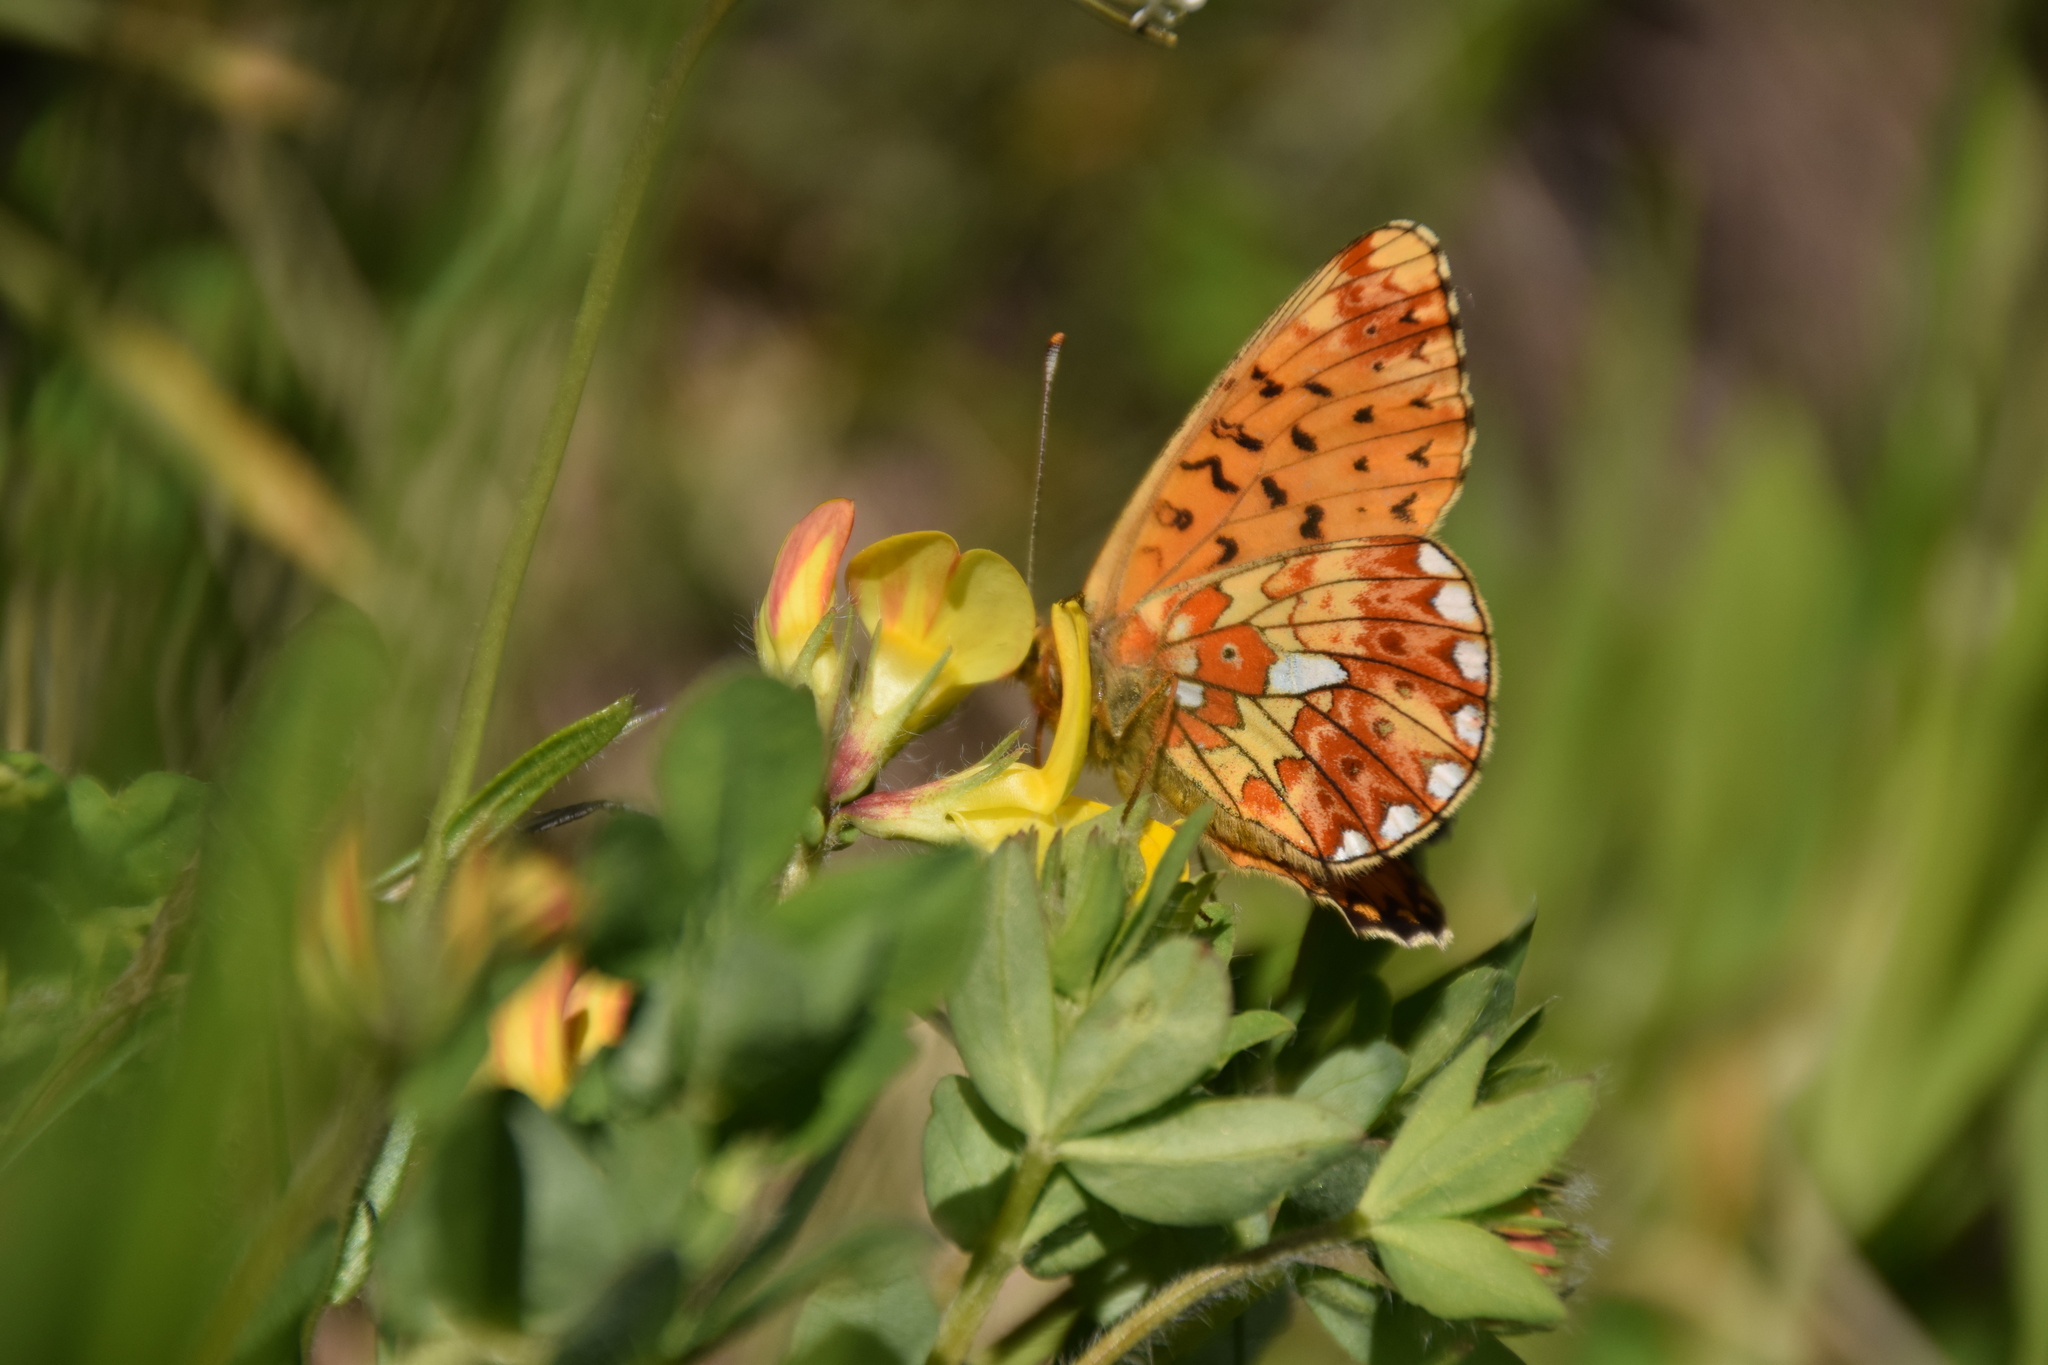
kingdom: Animalia
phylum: Arthropoda
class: Insecta
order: Lepidoptera
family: Nymphalidae
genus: Clossiana
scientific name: Clossiana euphrosyne
